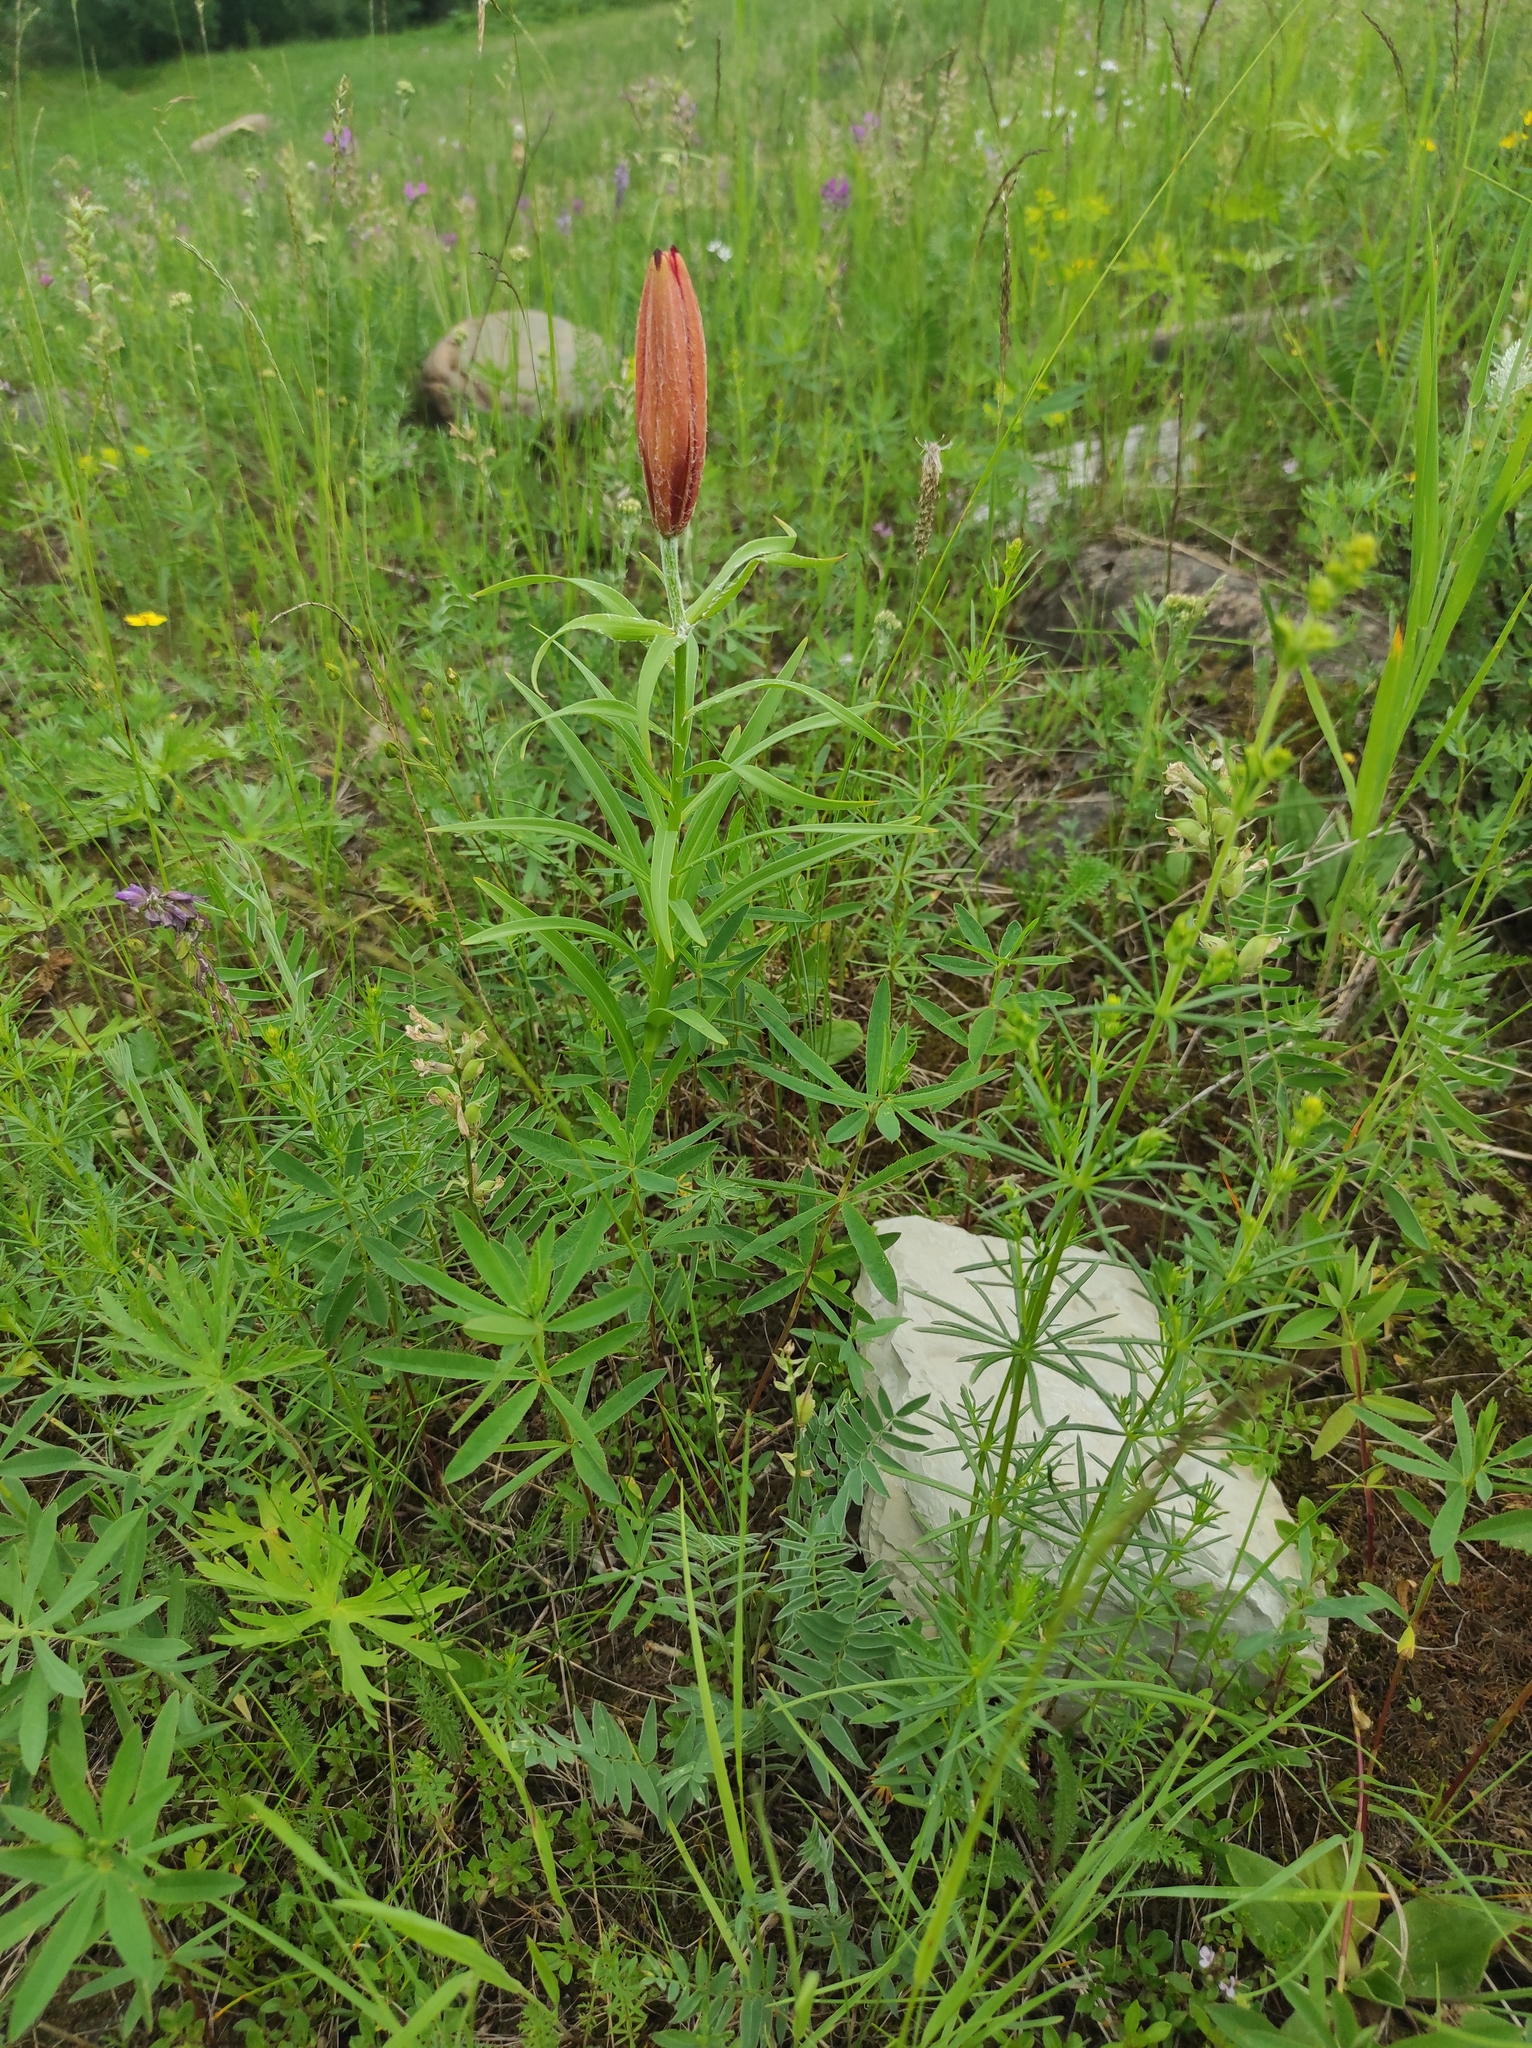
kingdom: Plantae
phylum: Tracheophyta
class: Liliopsida
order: Liliales
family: Liliaceae
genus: Lilium
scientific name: Lilium pensylvanicum
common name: Candlestick lily
